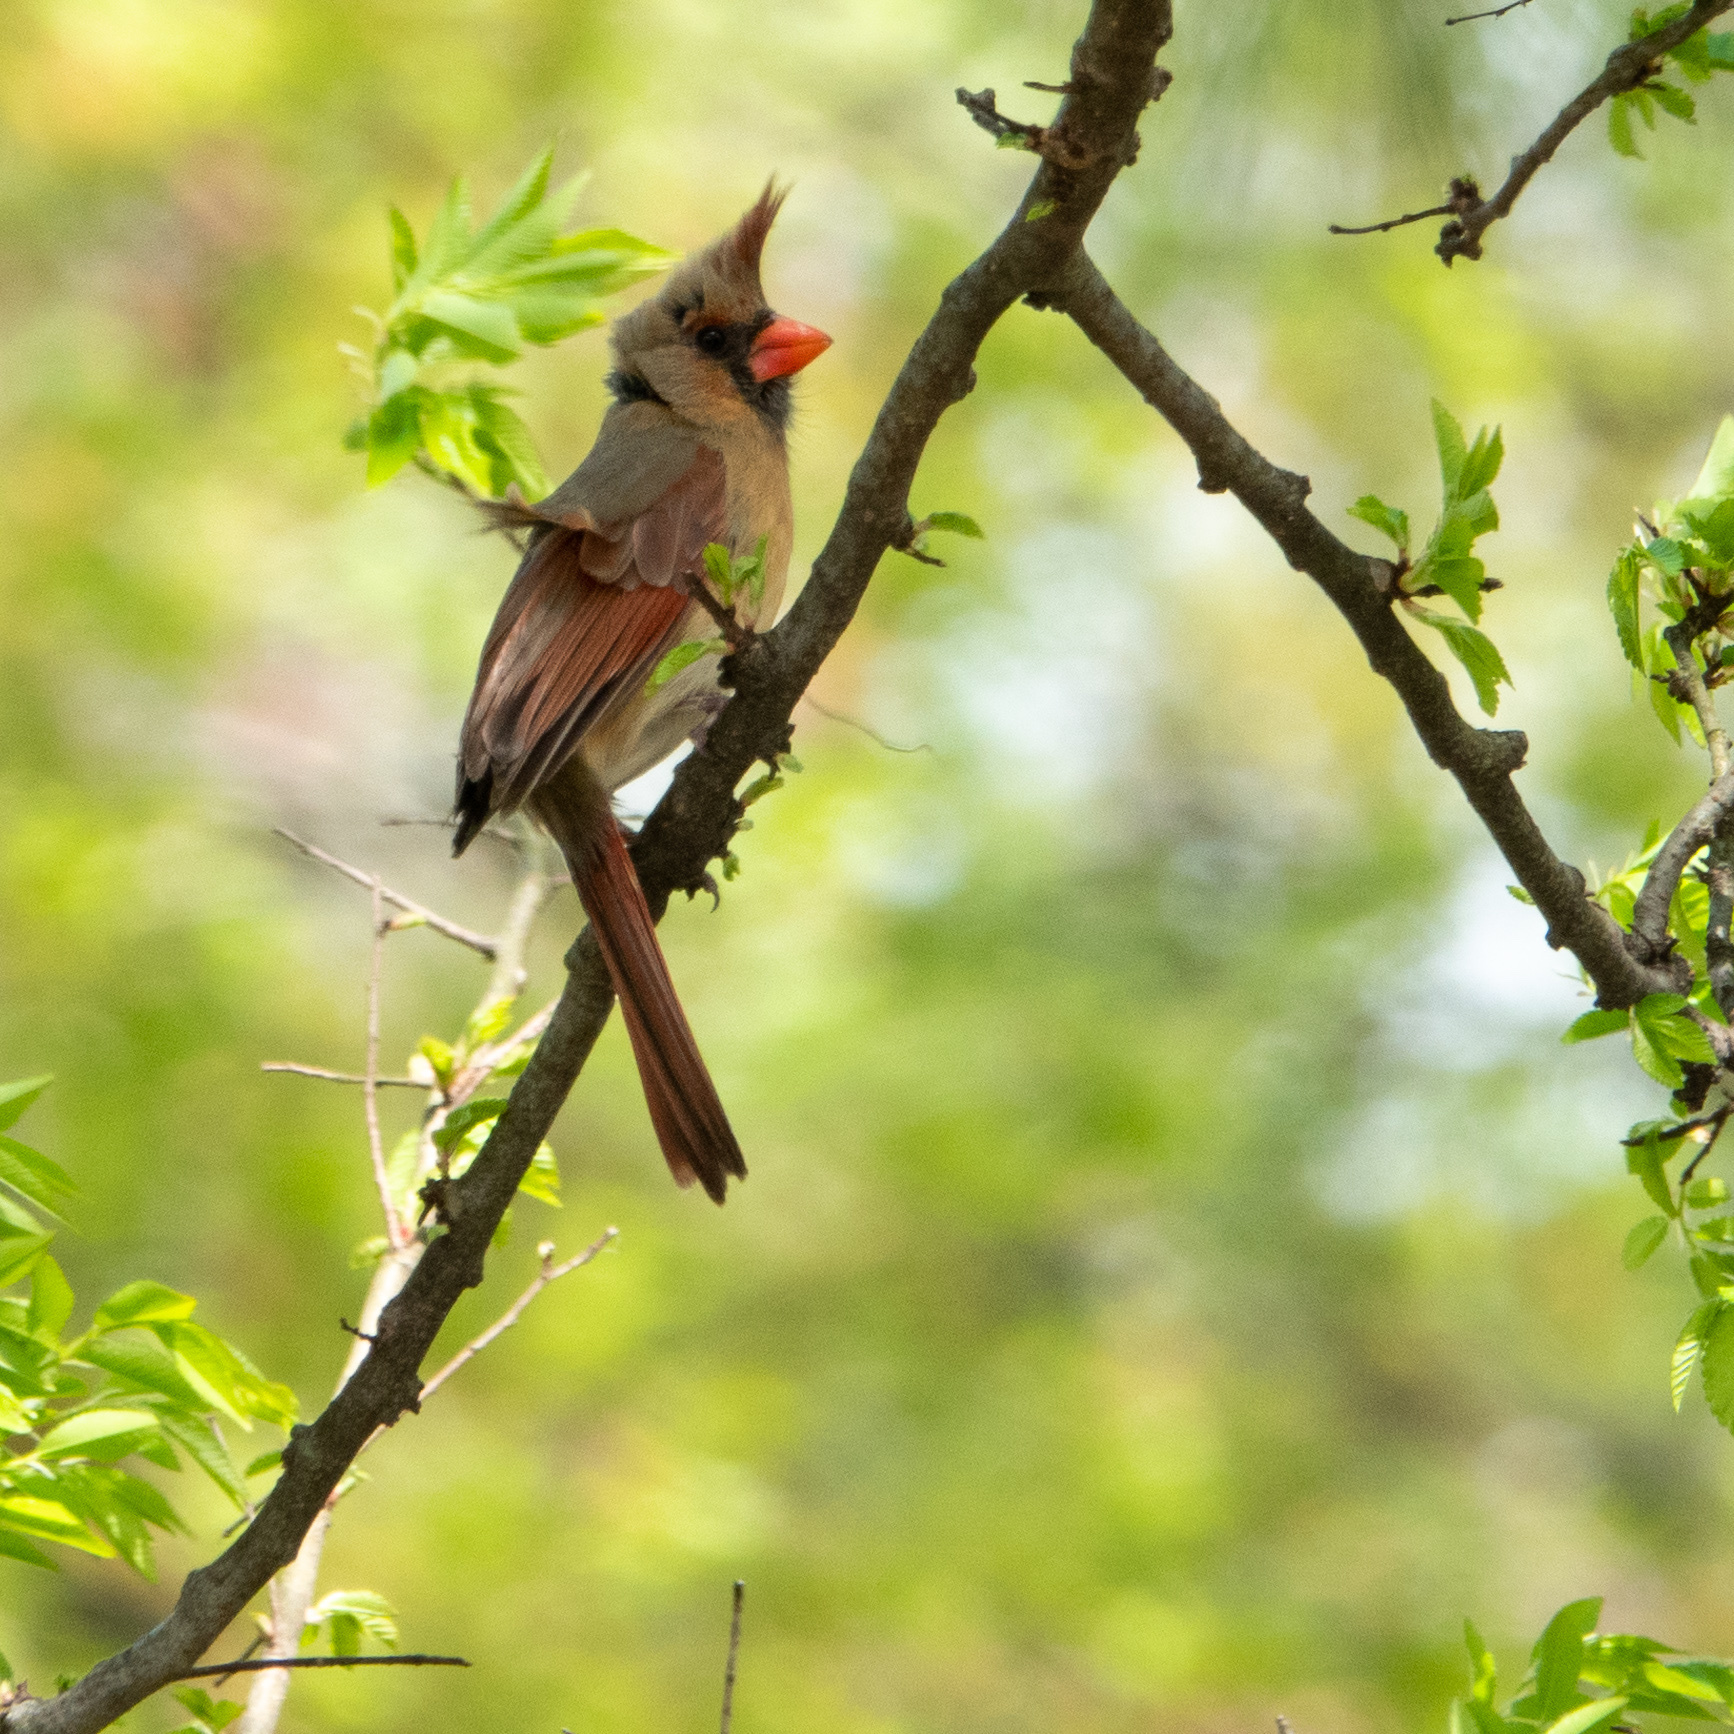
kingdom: Animalia
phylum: Chordata
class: Aves
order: Passeriformes
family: Cardinalidae
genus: Cardinalis
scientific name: Cardinalis cardinalis
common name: Northern cardinal
